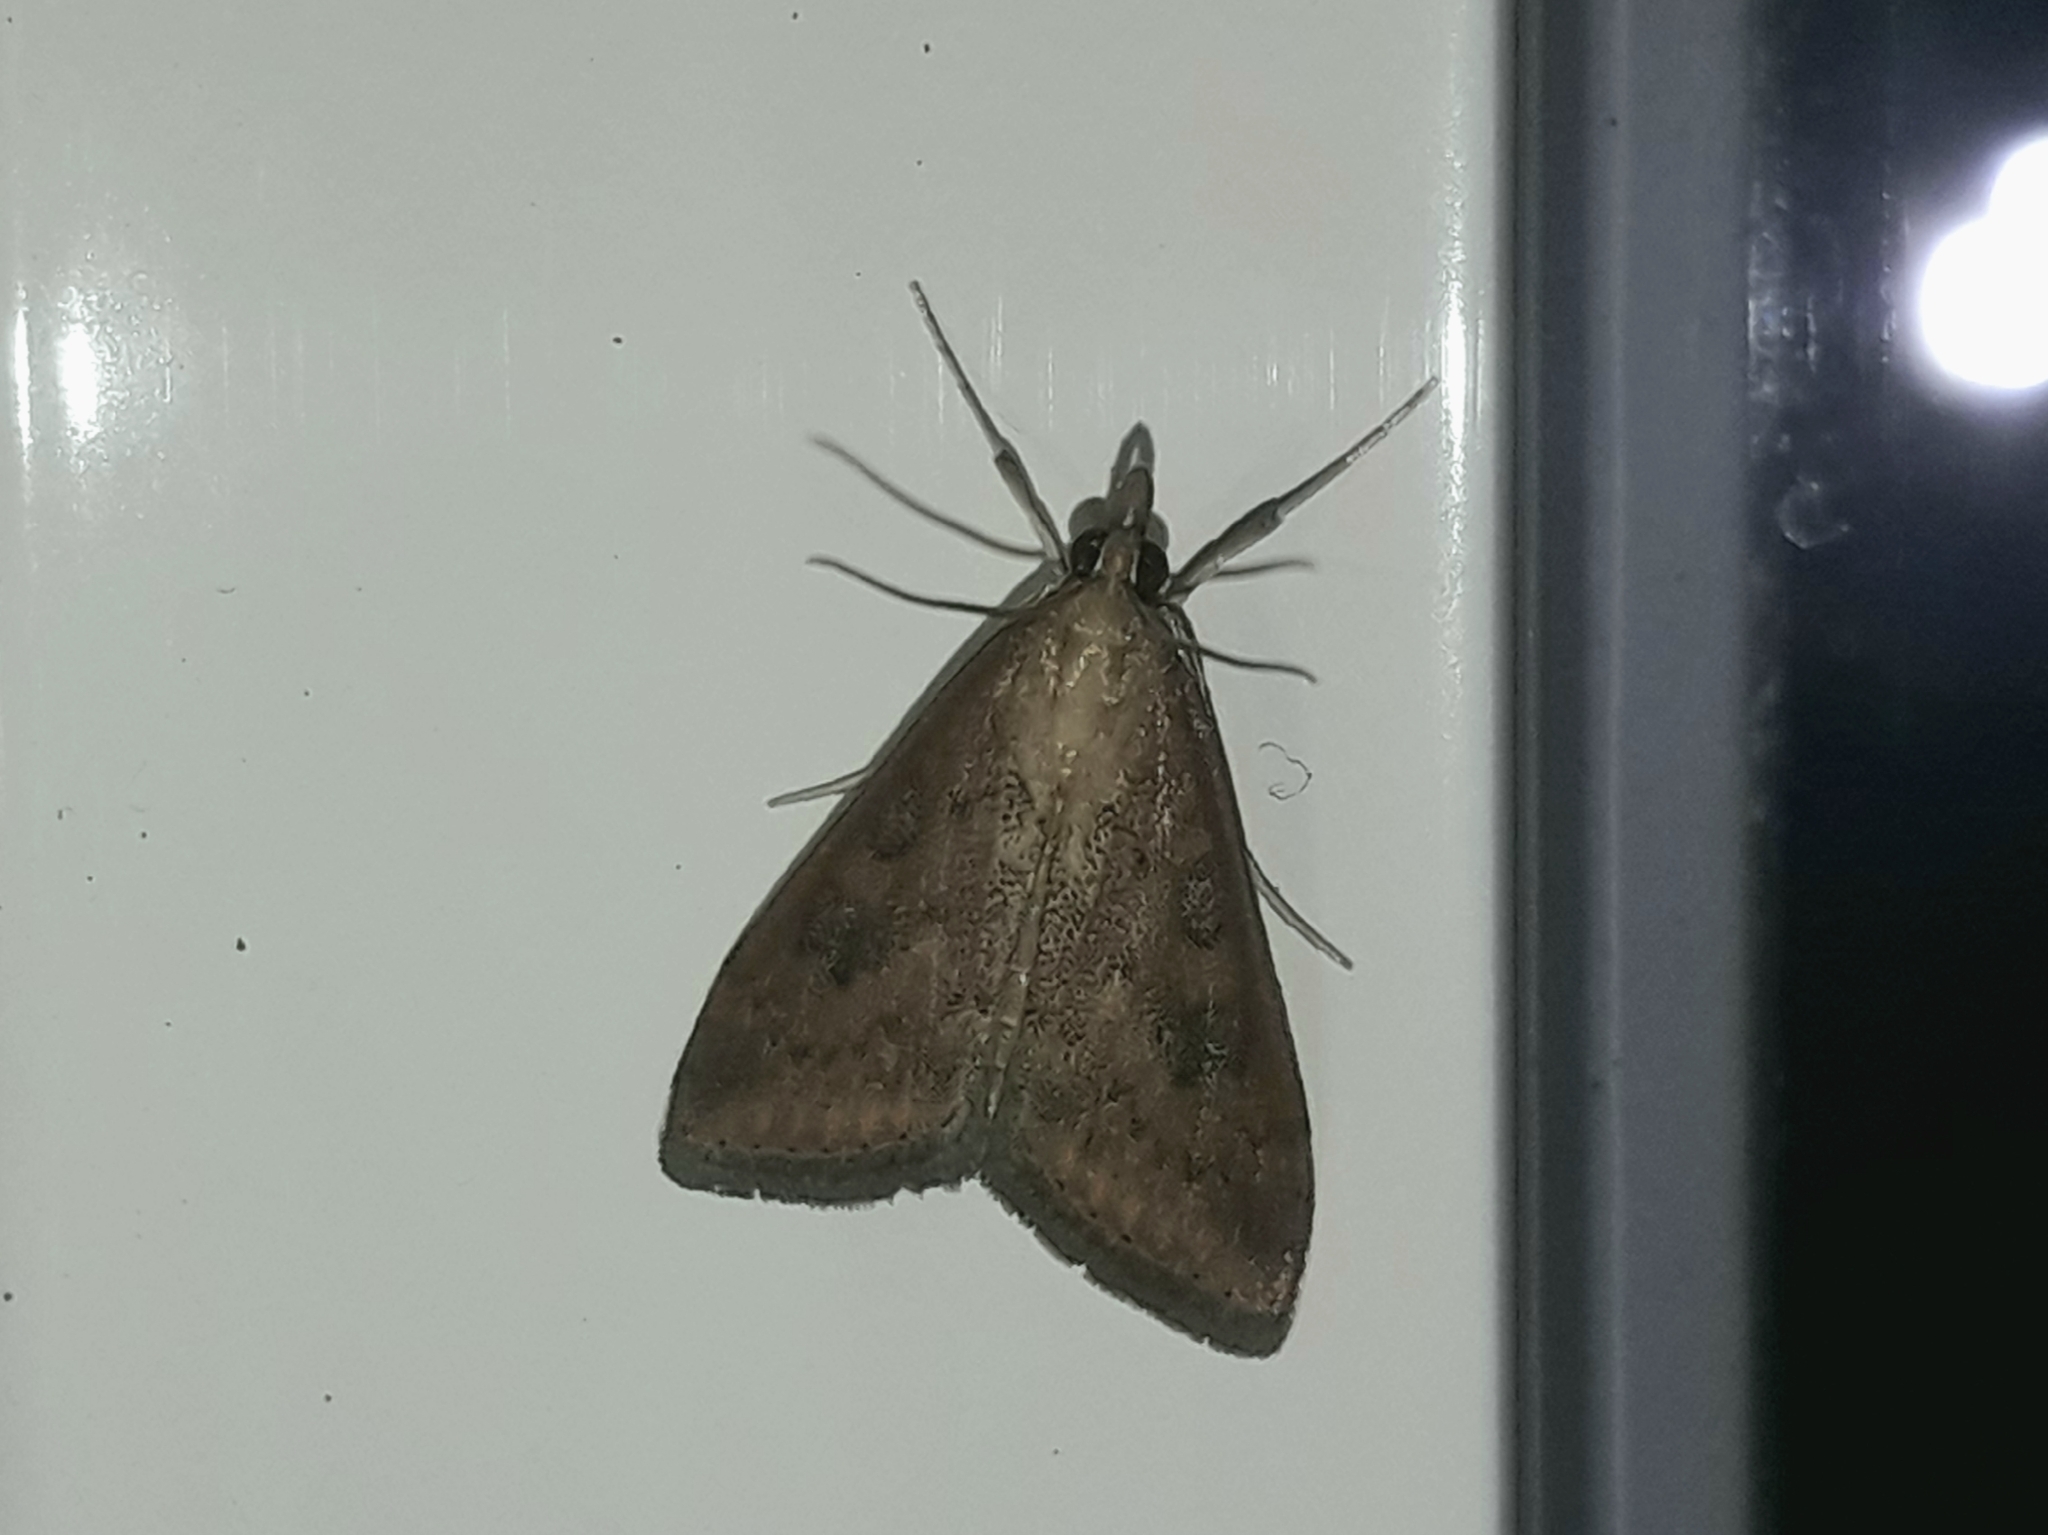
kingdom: Animalia
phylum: Arthropoda
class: Insecta
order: Lepidoptera
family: Crambidae
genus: Udea
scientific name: Udea ferrugalis
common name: Rusty dot
